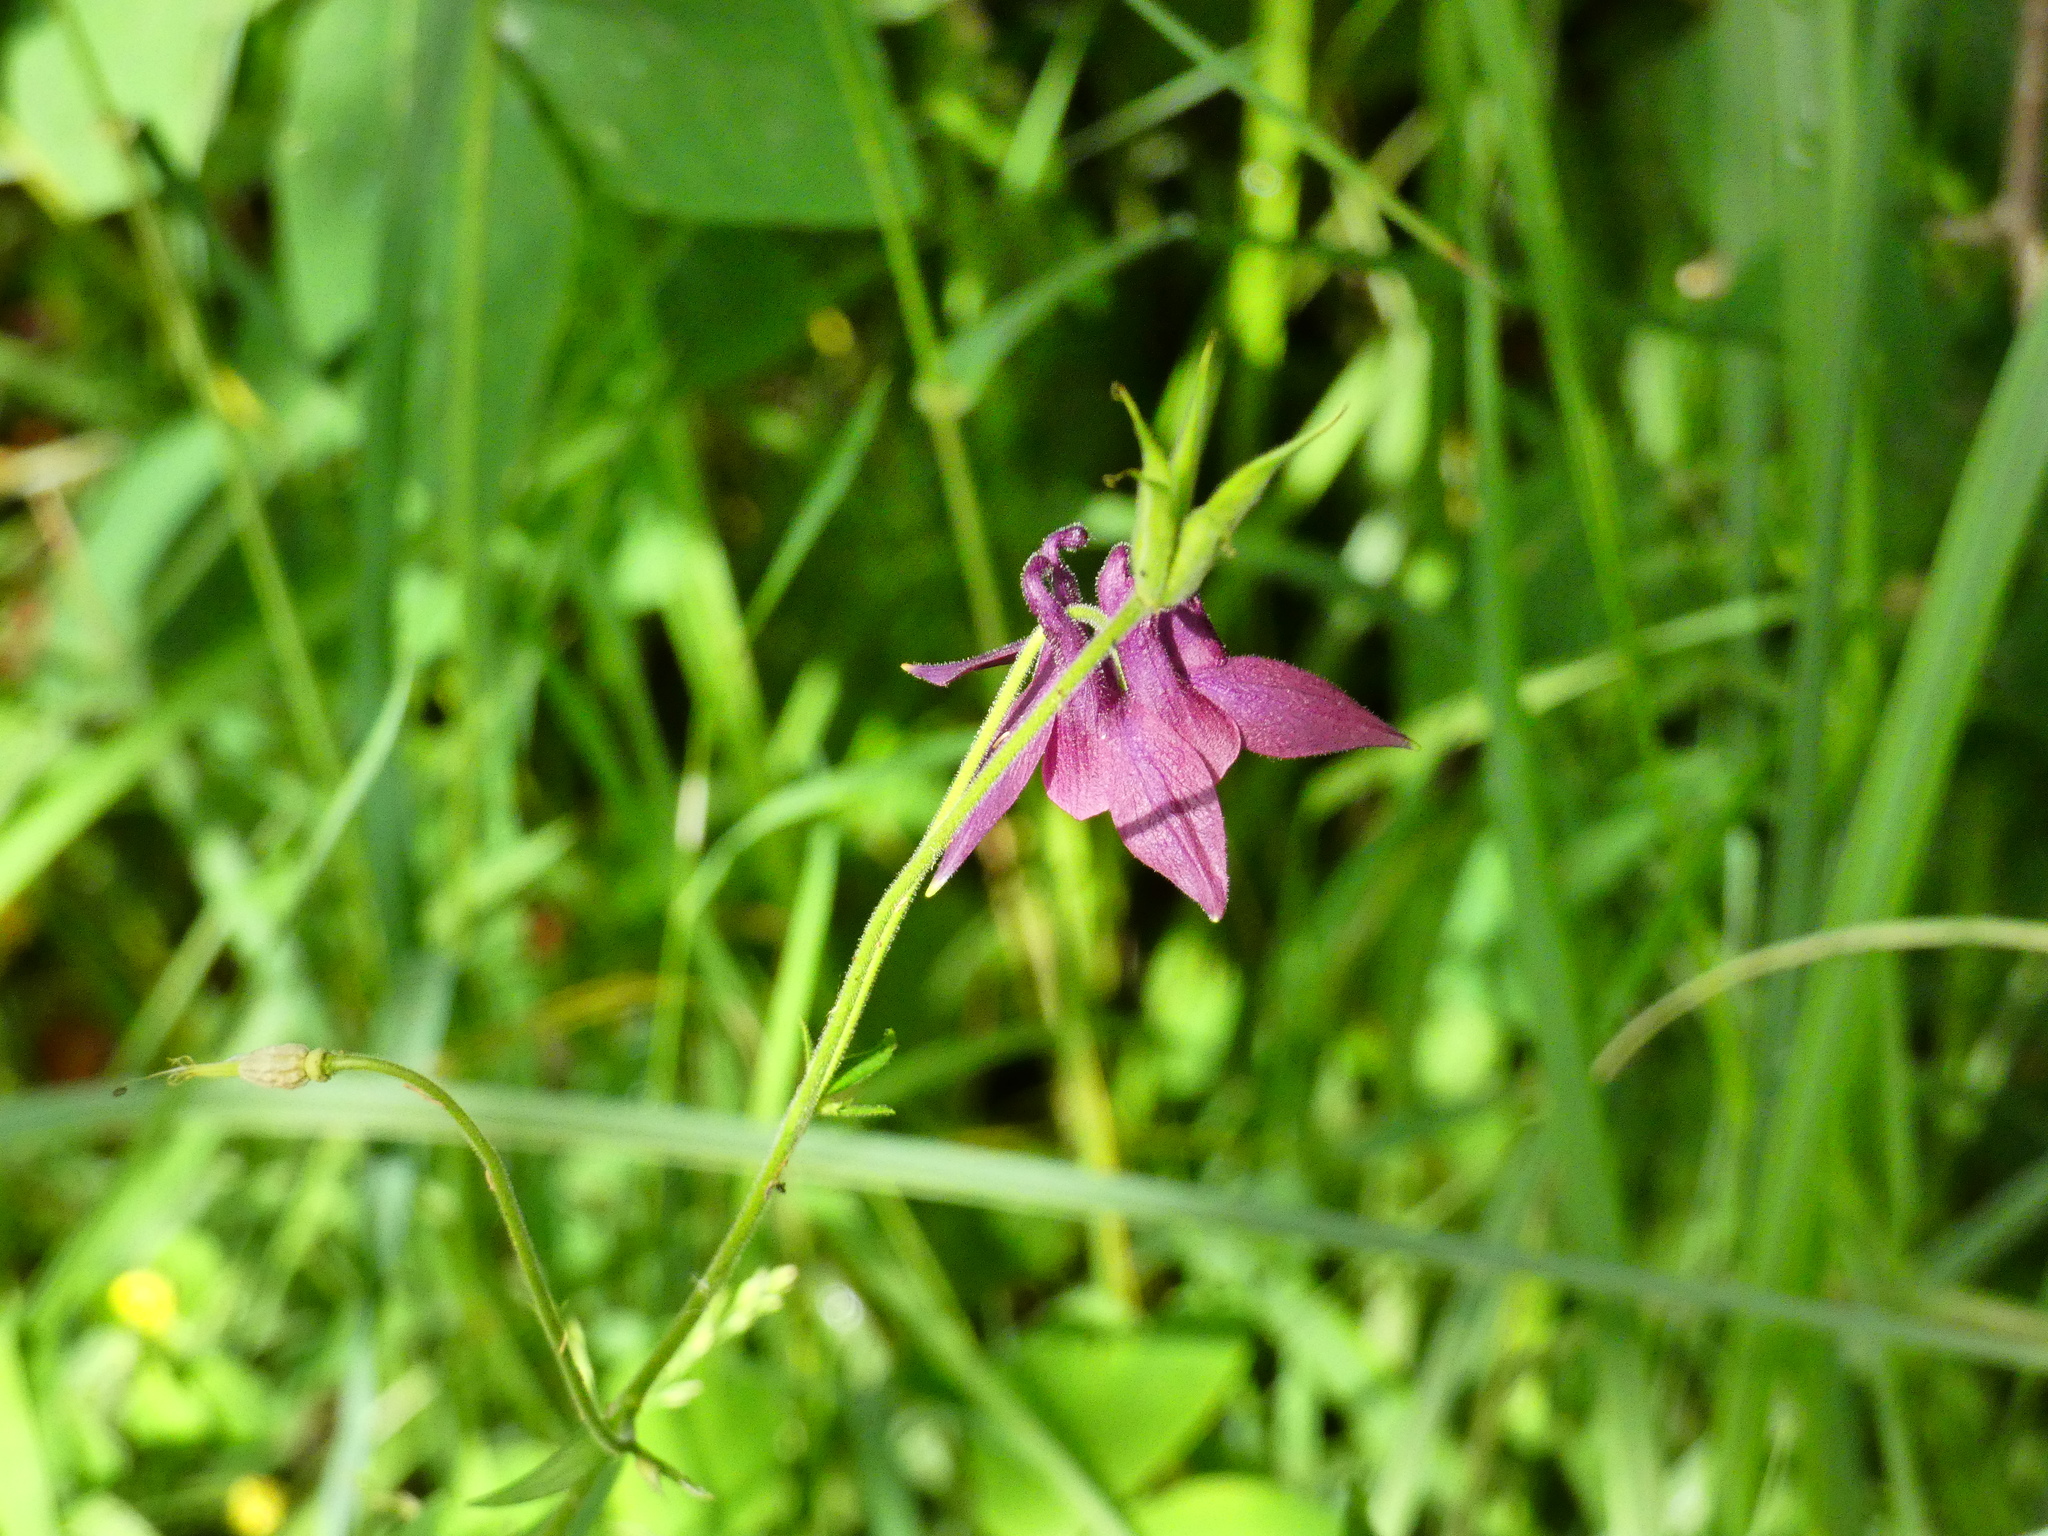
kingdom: Plantae
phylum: Tracheophyta
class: Magnoliopsida
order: Ranunculales
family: Ranunculaceae
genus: Aquilegia
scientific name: Aquilegia atrata
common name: Dark columbine
